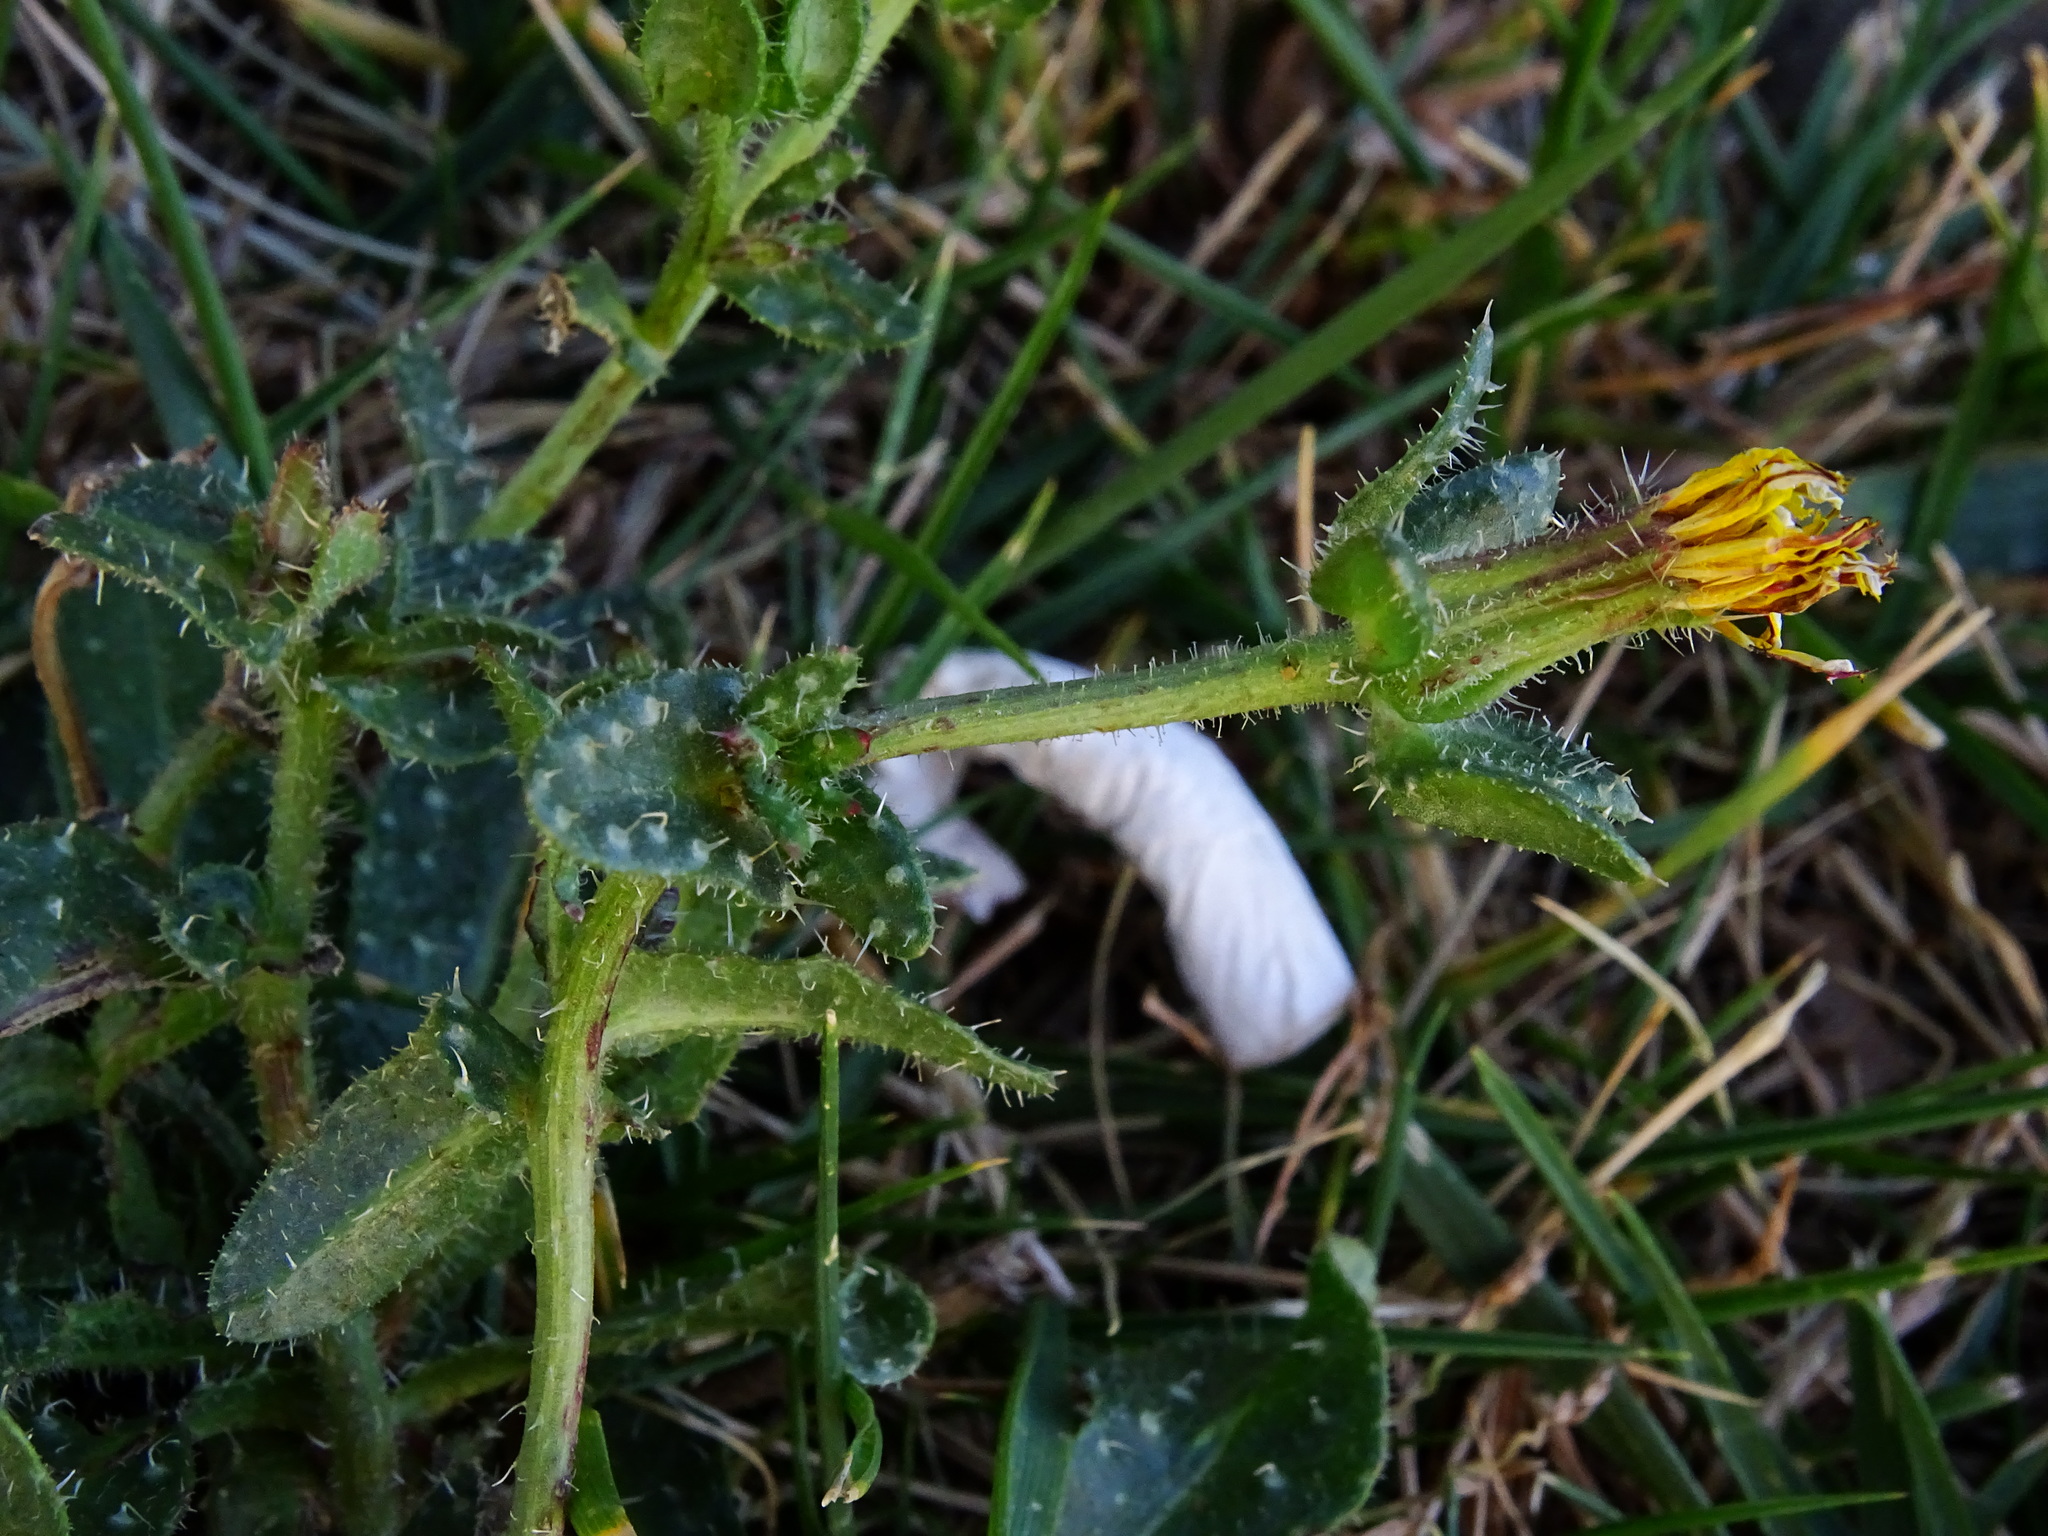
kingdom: Plantae
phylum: Tracheophyta
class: Magnoliopsida
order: Asterales
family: Asteraceae
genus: Helminthotheca
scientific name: Helminthotheca echioides
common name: Ox-tongue
